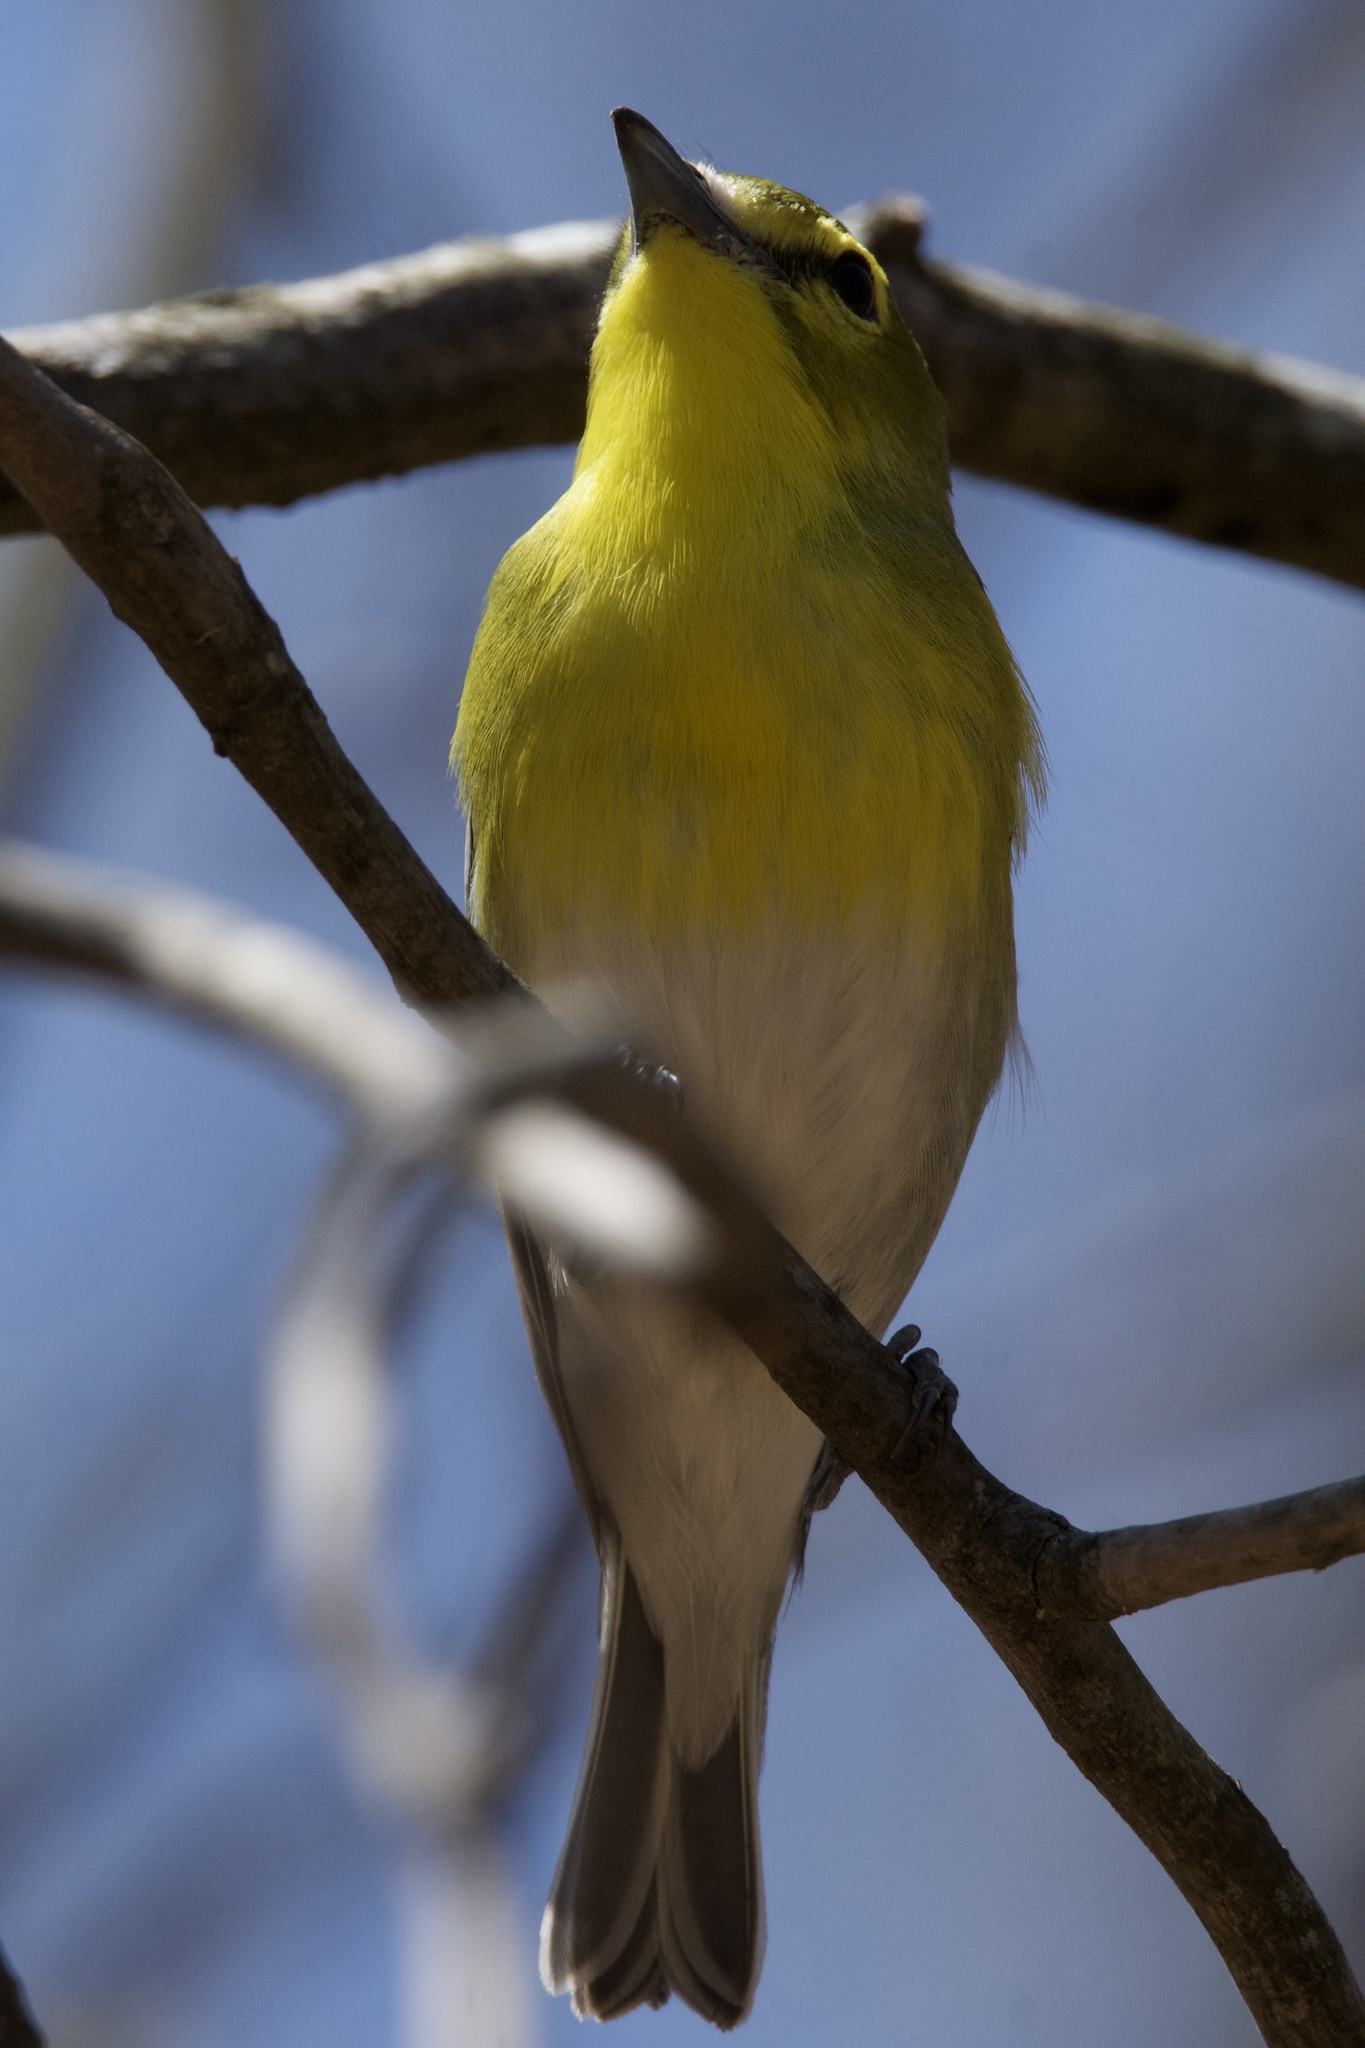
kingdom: Animalia
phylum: Chordata
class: Aves
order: Passeriformes
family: Vireonidae
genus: Vireo
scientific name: Vireo flavifrons
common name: Yellow-throated vireo
